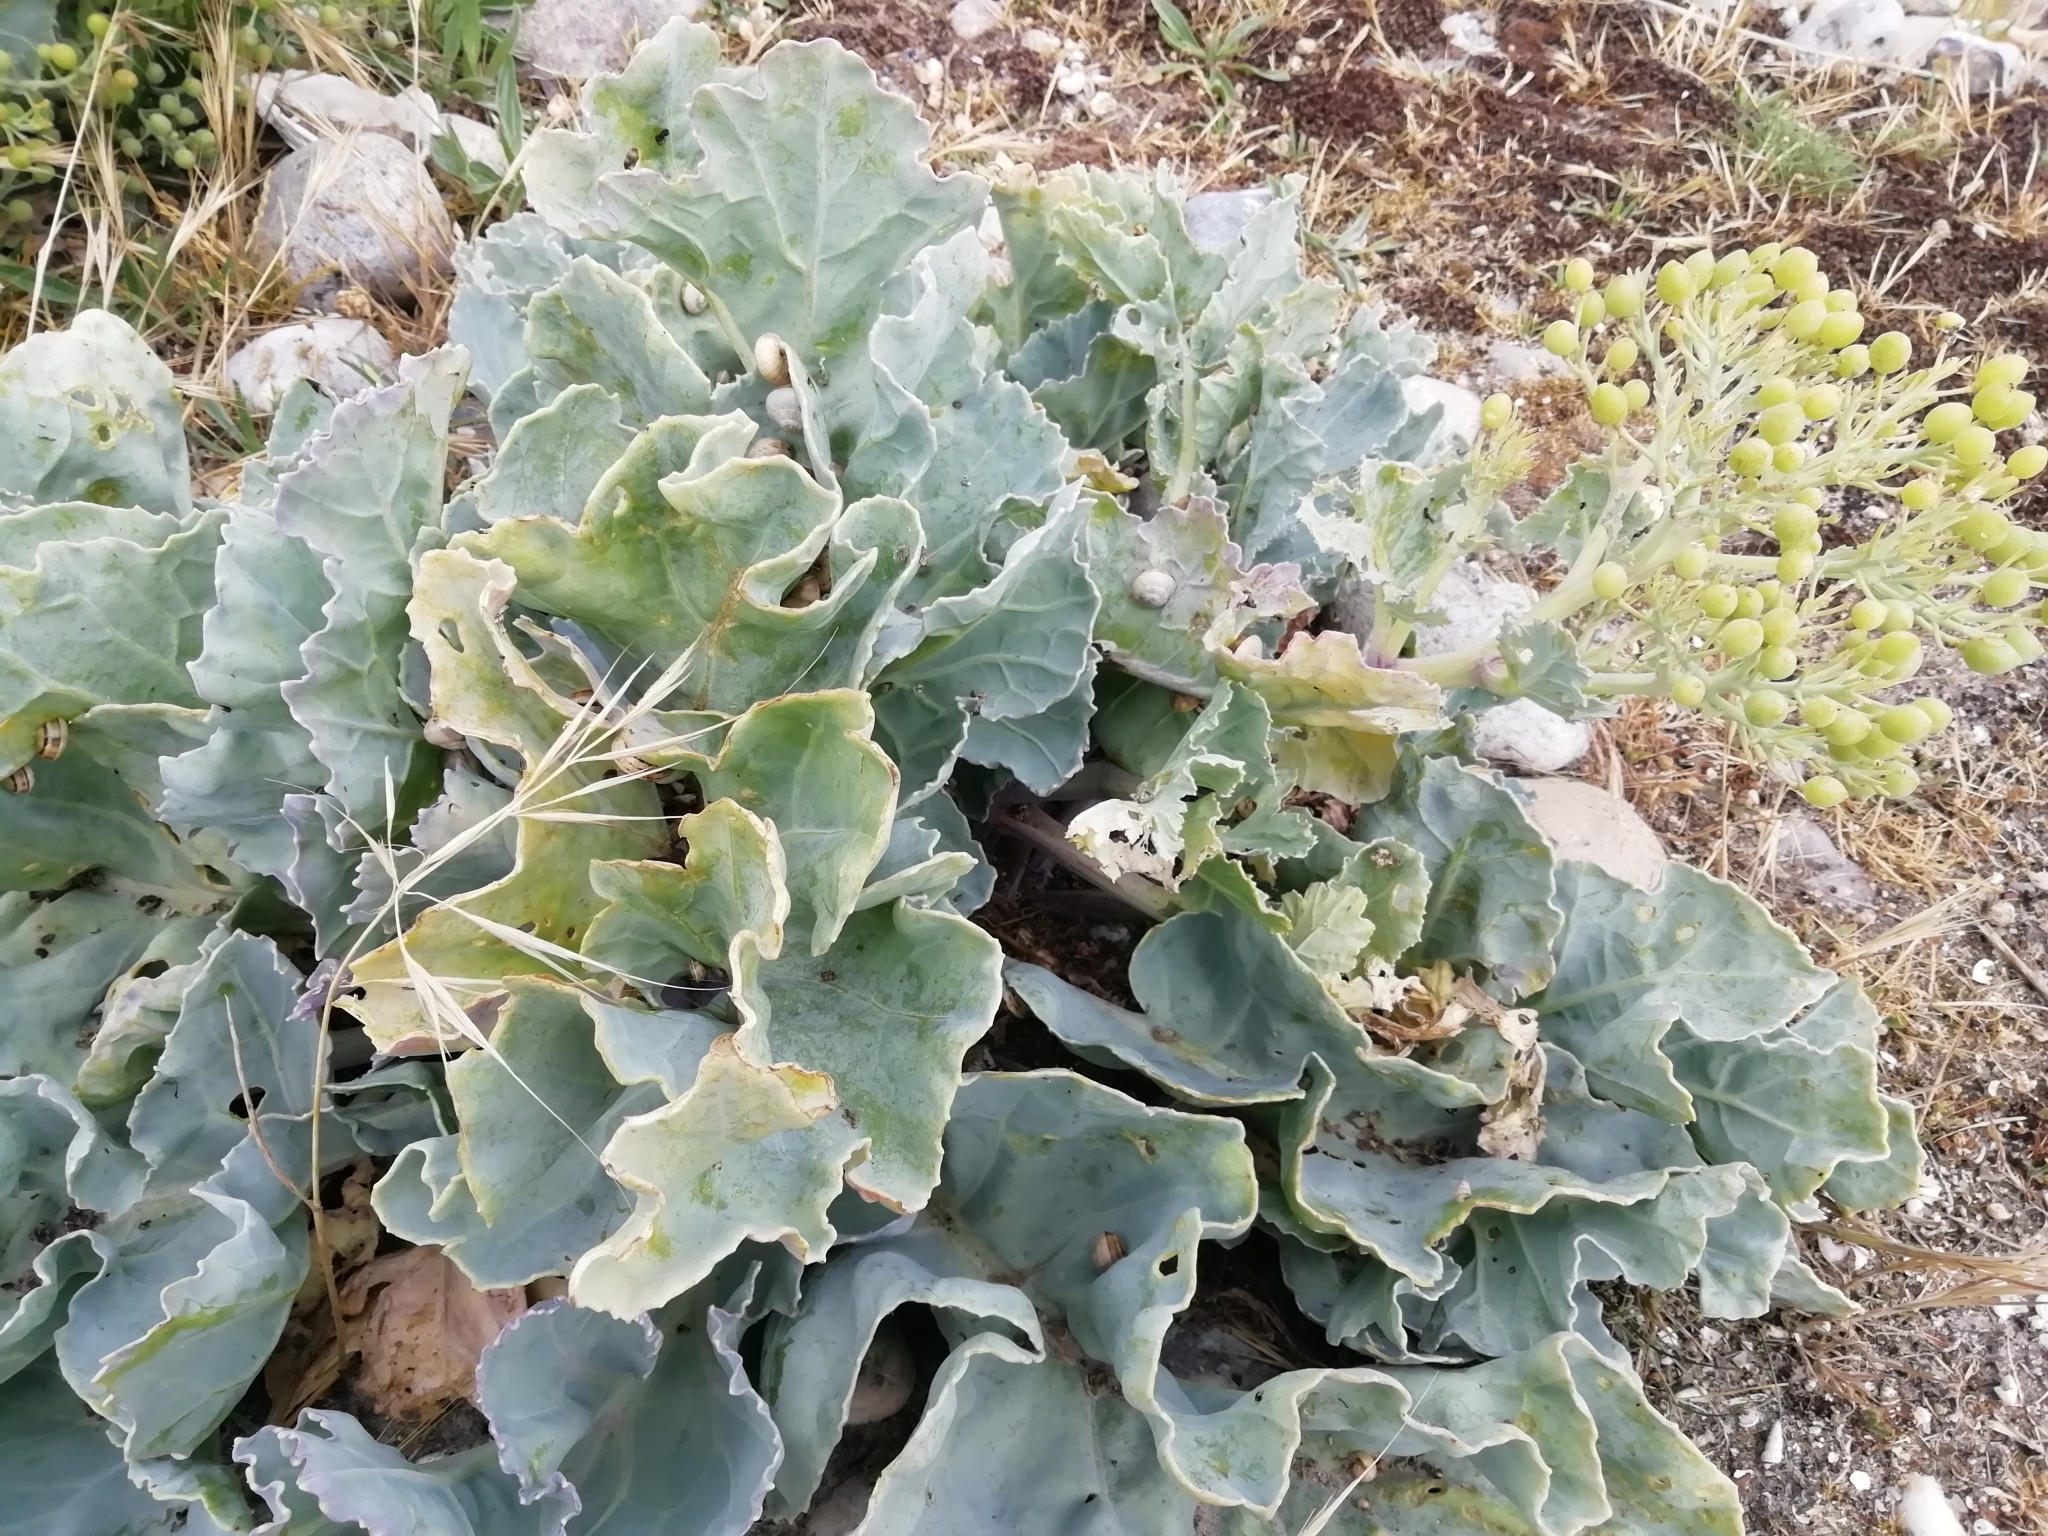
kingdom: Plantae
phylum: Tracheophyta
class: Magnoliopsida
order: Brassicales
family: Brassicaceae
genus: Crambe
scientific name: Crambe maritima
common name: Sea-kale
